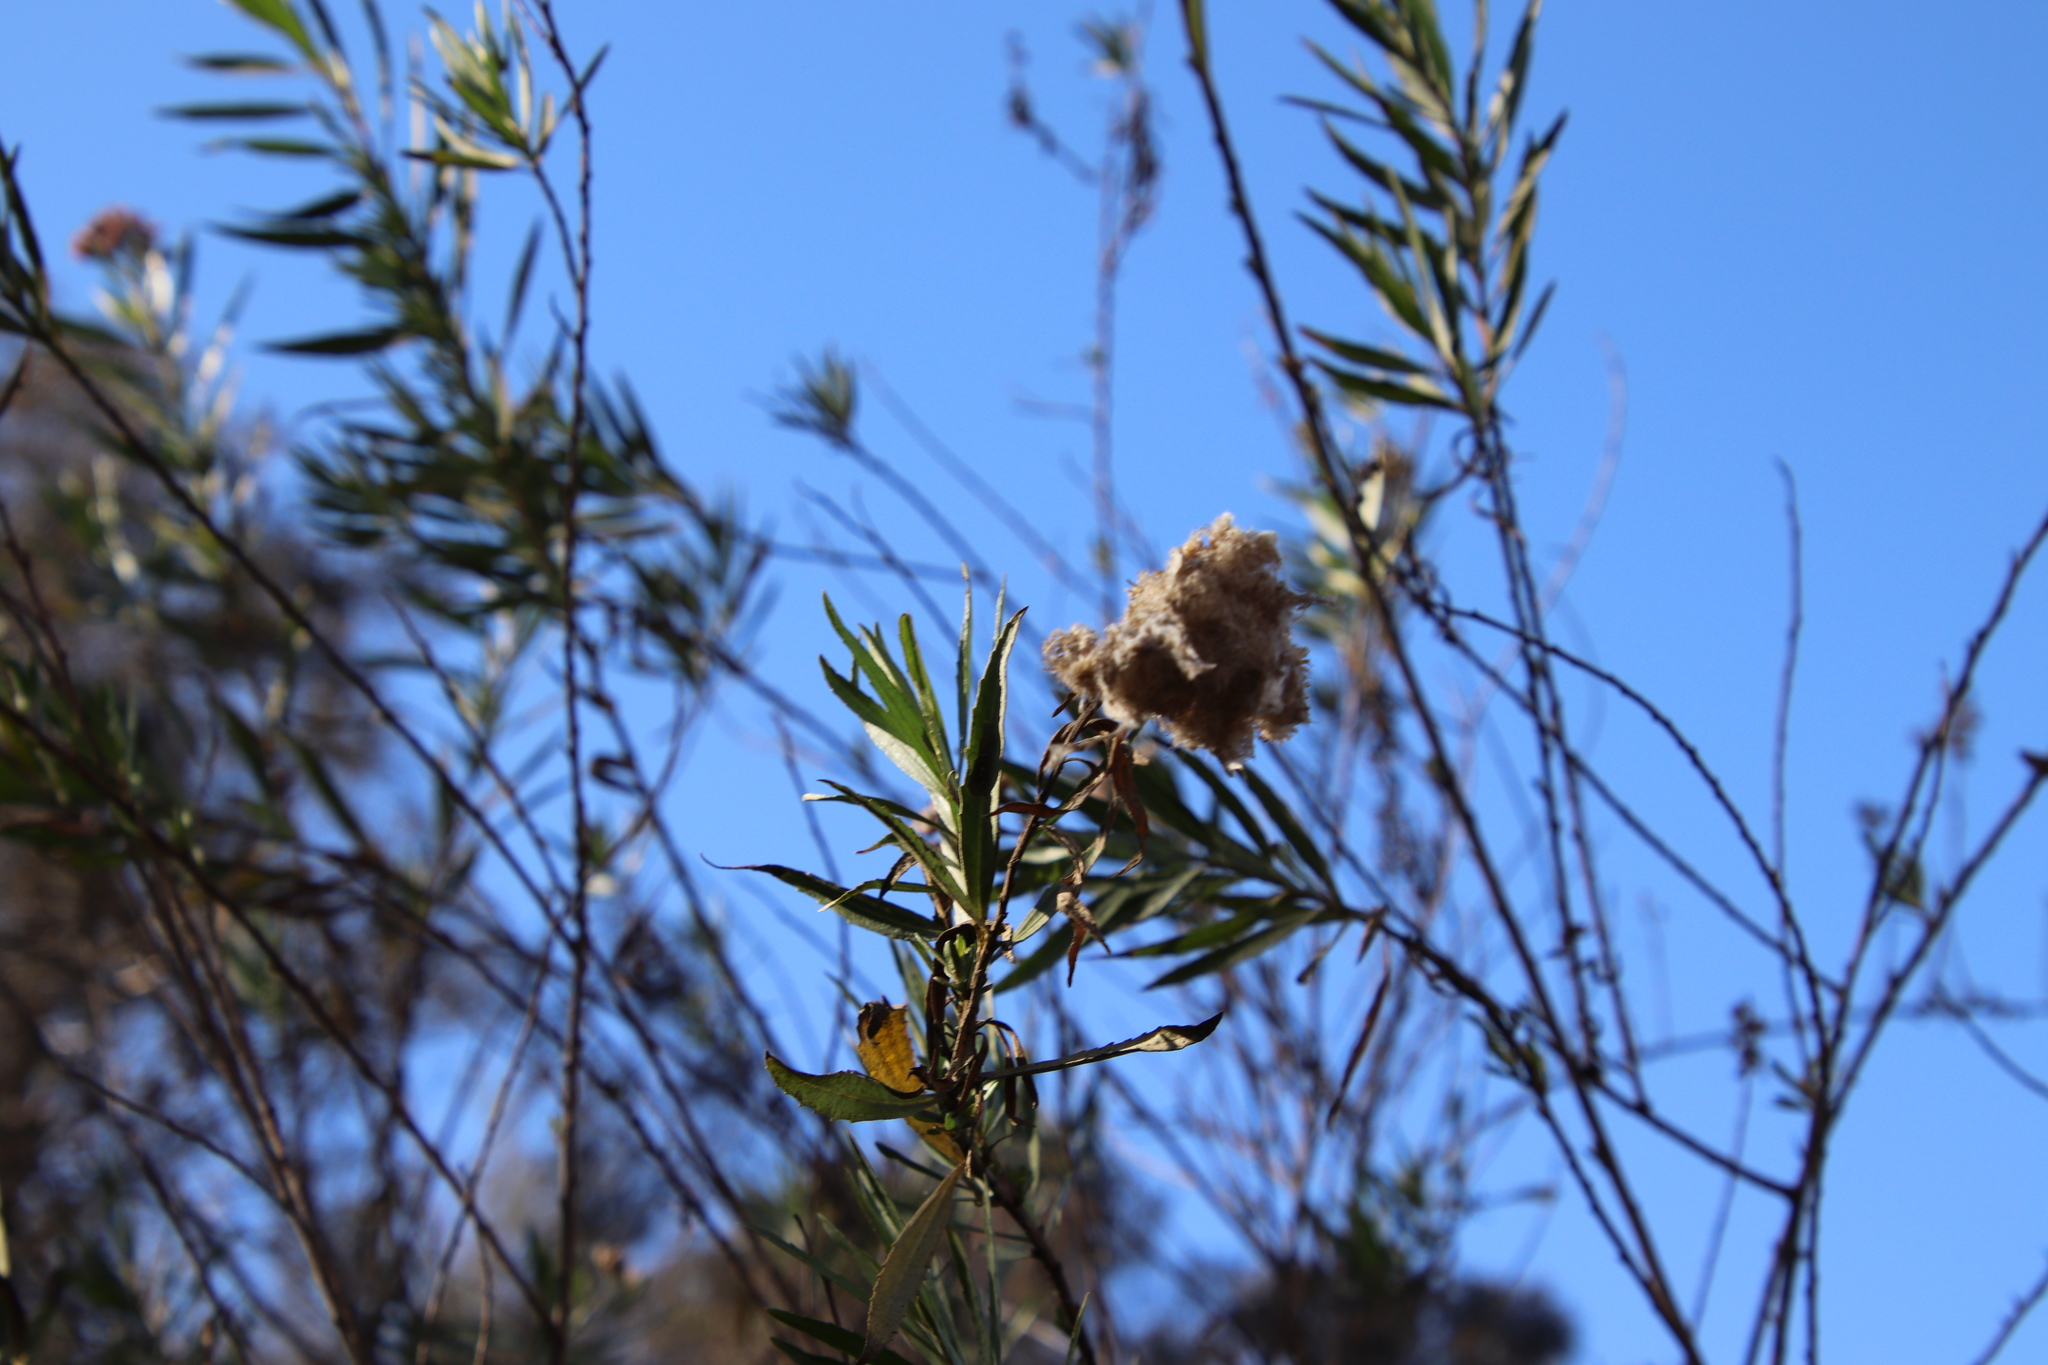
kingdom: Plantae
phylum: Tracheophyta
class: Magnoliopsida
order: Asterales
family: Asteraceae
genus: Baccharis
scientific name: Baccharis salicifolia
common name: Sticky baccharis
